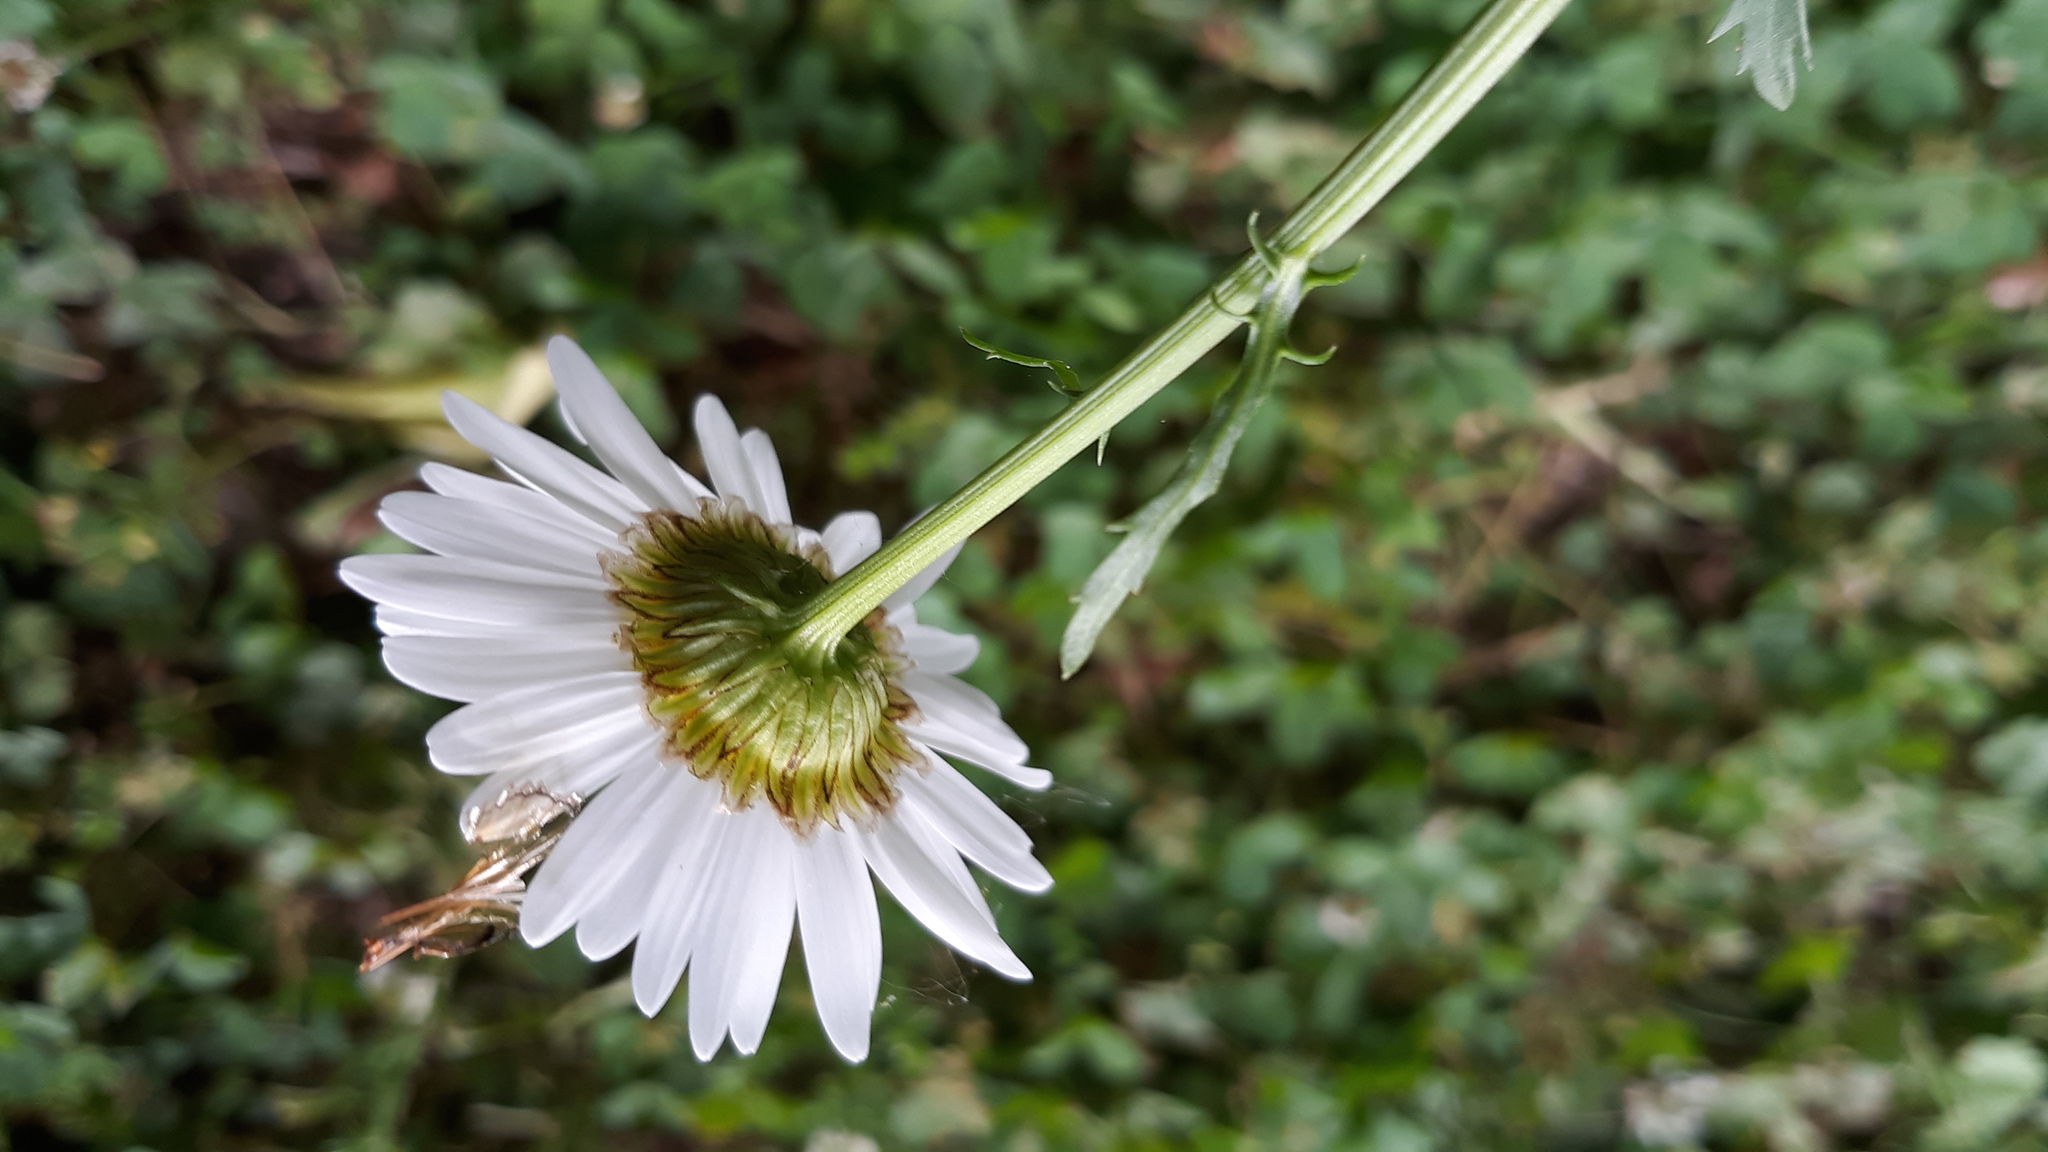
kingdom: Plantae
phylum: Tracheophyta
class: Magnoliopsida
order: Asterales
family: Asteraceae
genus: Leucanthemum
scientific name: Leucanthemum vulgare
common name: Oxeye daisy
